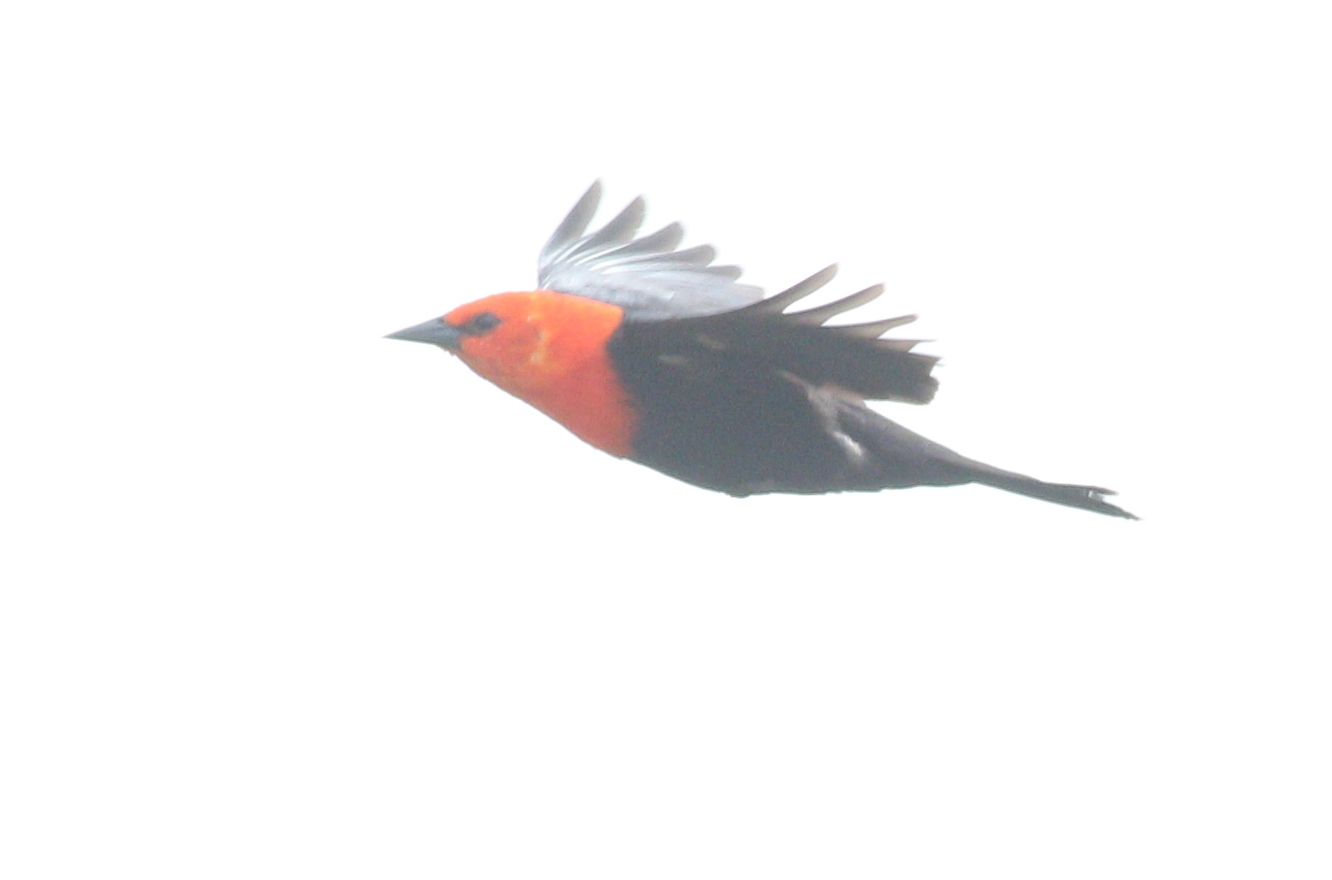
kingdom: Animalia
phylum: Chordata
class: Aves
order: Passeriformes
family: Icteridae
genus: Amblyramphus
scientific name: Amblyramphus holosericeus
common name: Scarlet-headed blackbird
